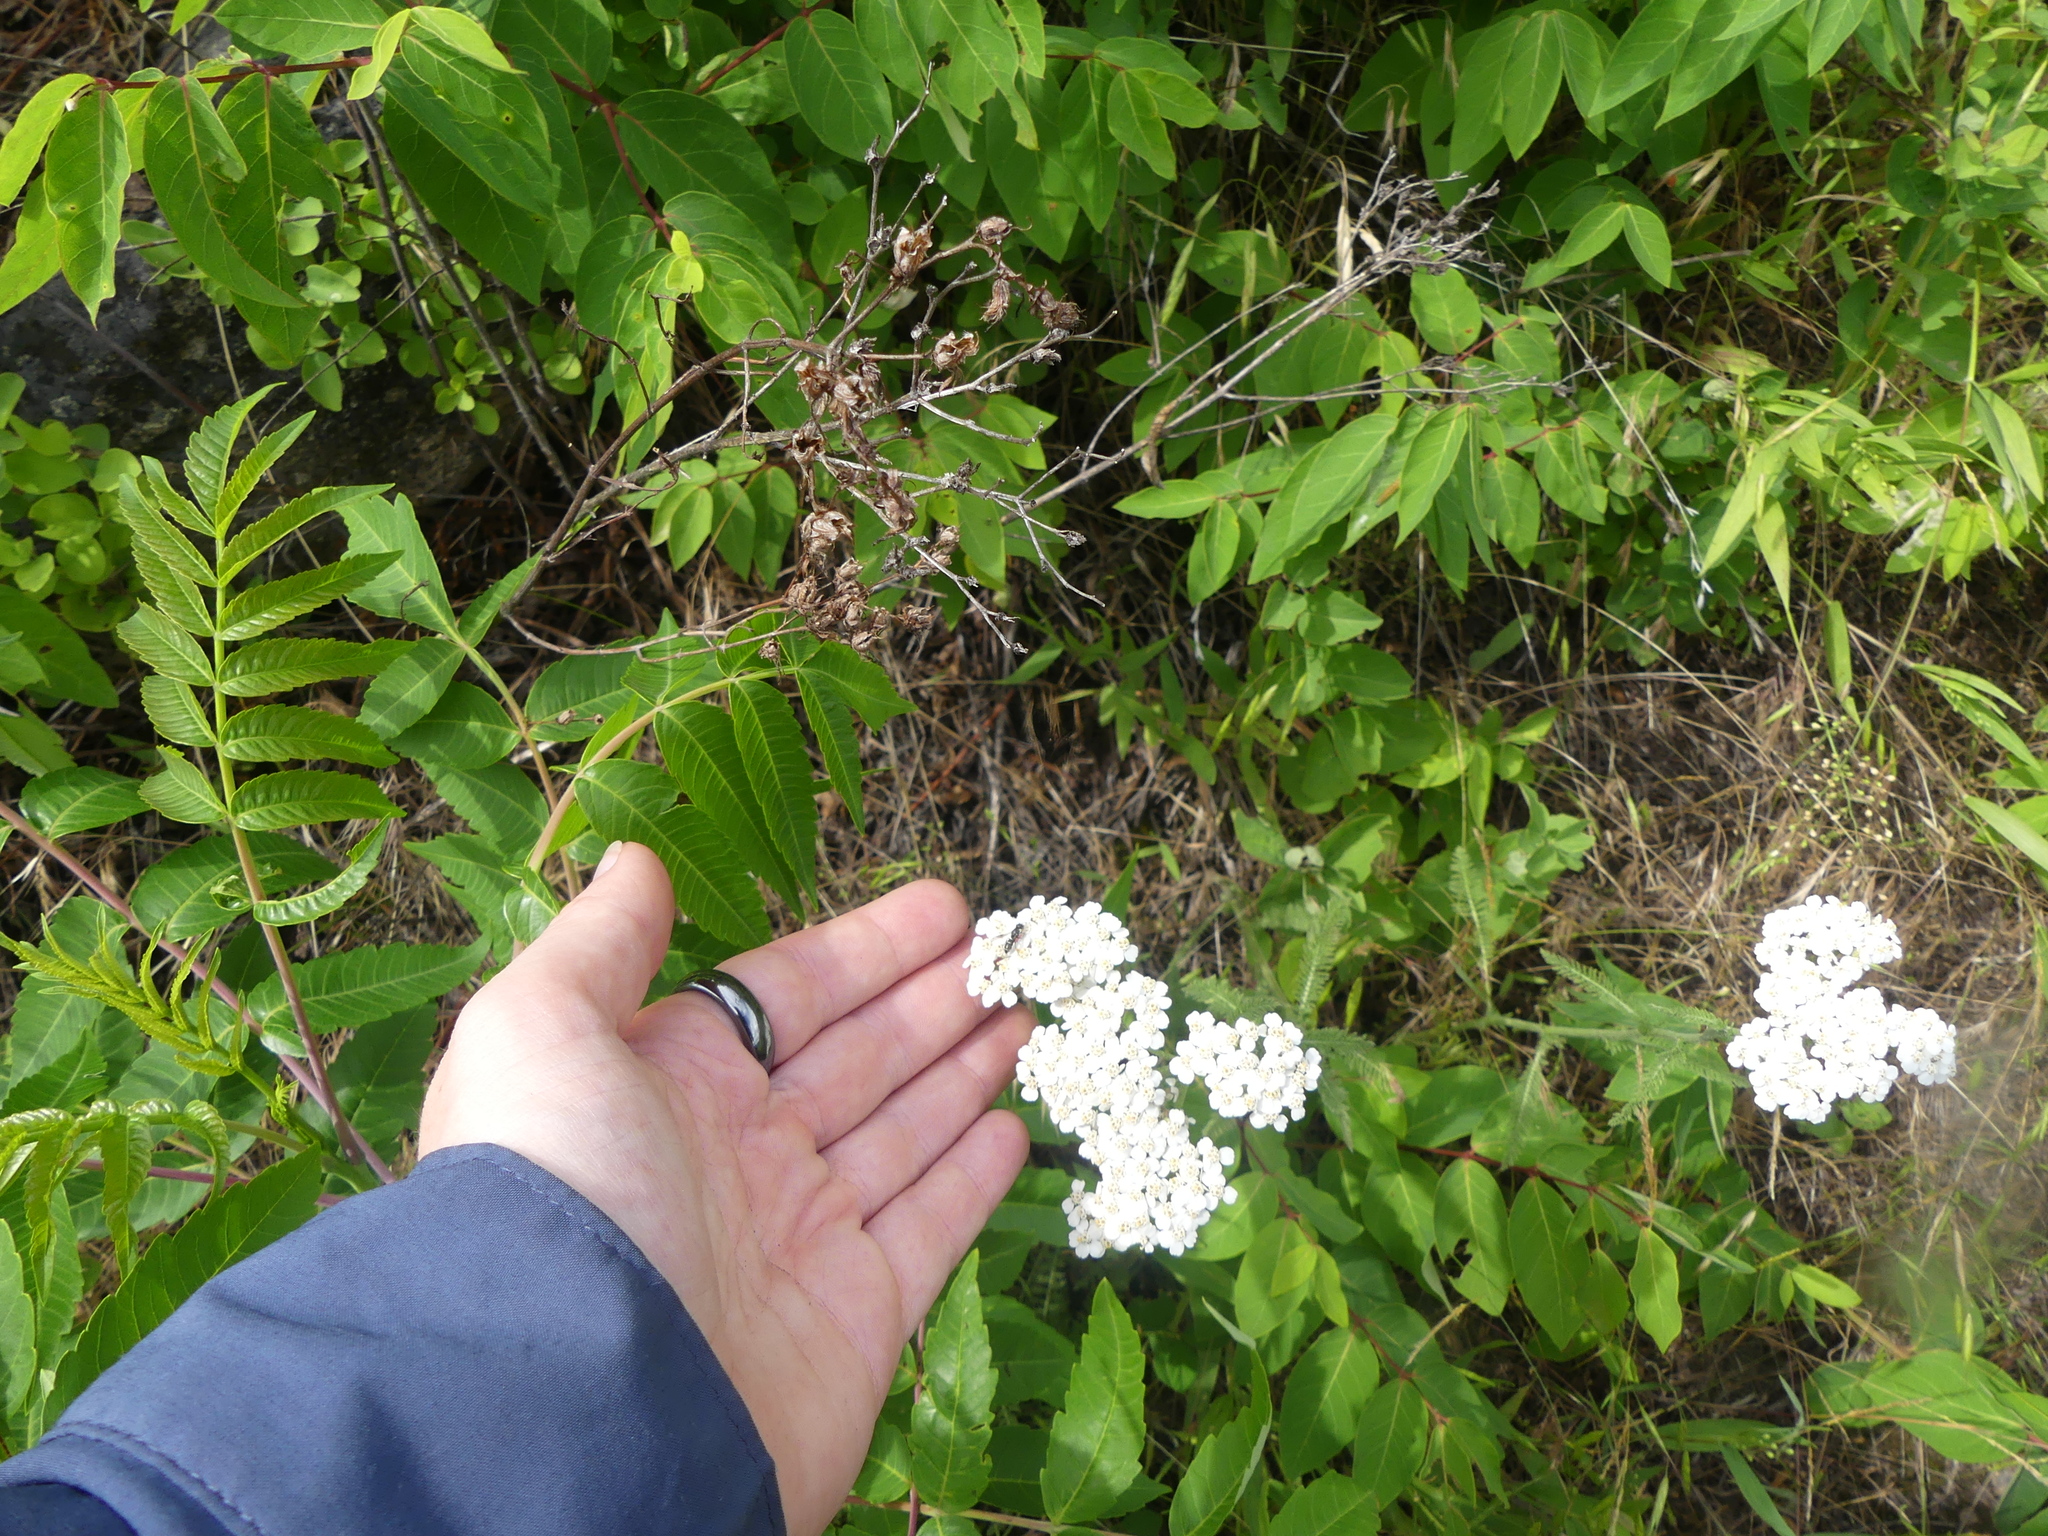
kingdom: Plantae
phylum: Tracheophyta
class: Magnoliopsida
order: Asterales
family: Asteraceae
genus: Achillea
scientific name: Achillea millefolium
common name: Yarrow
